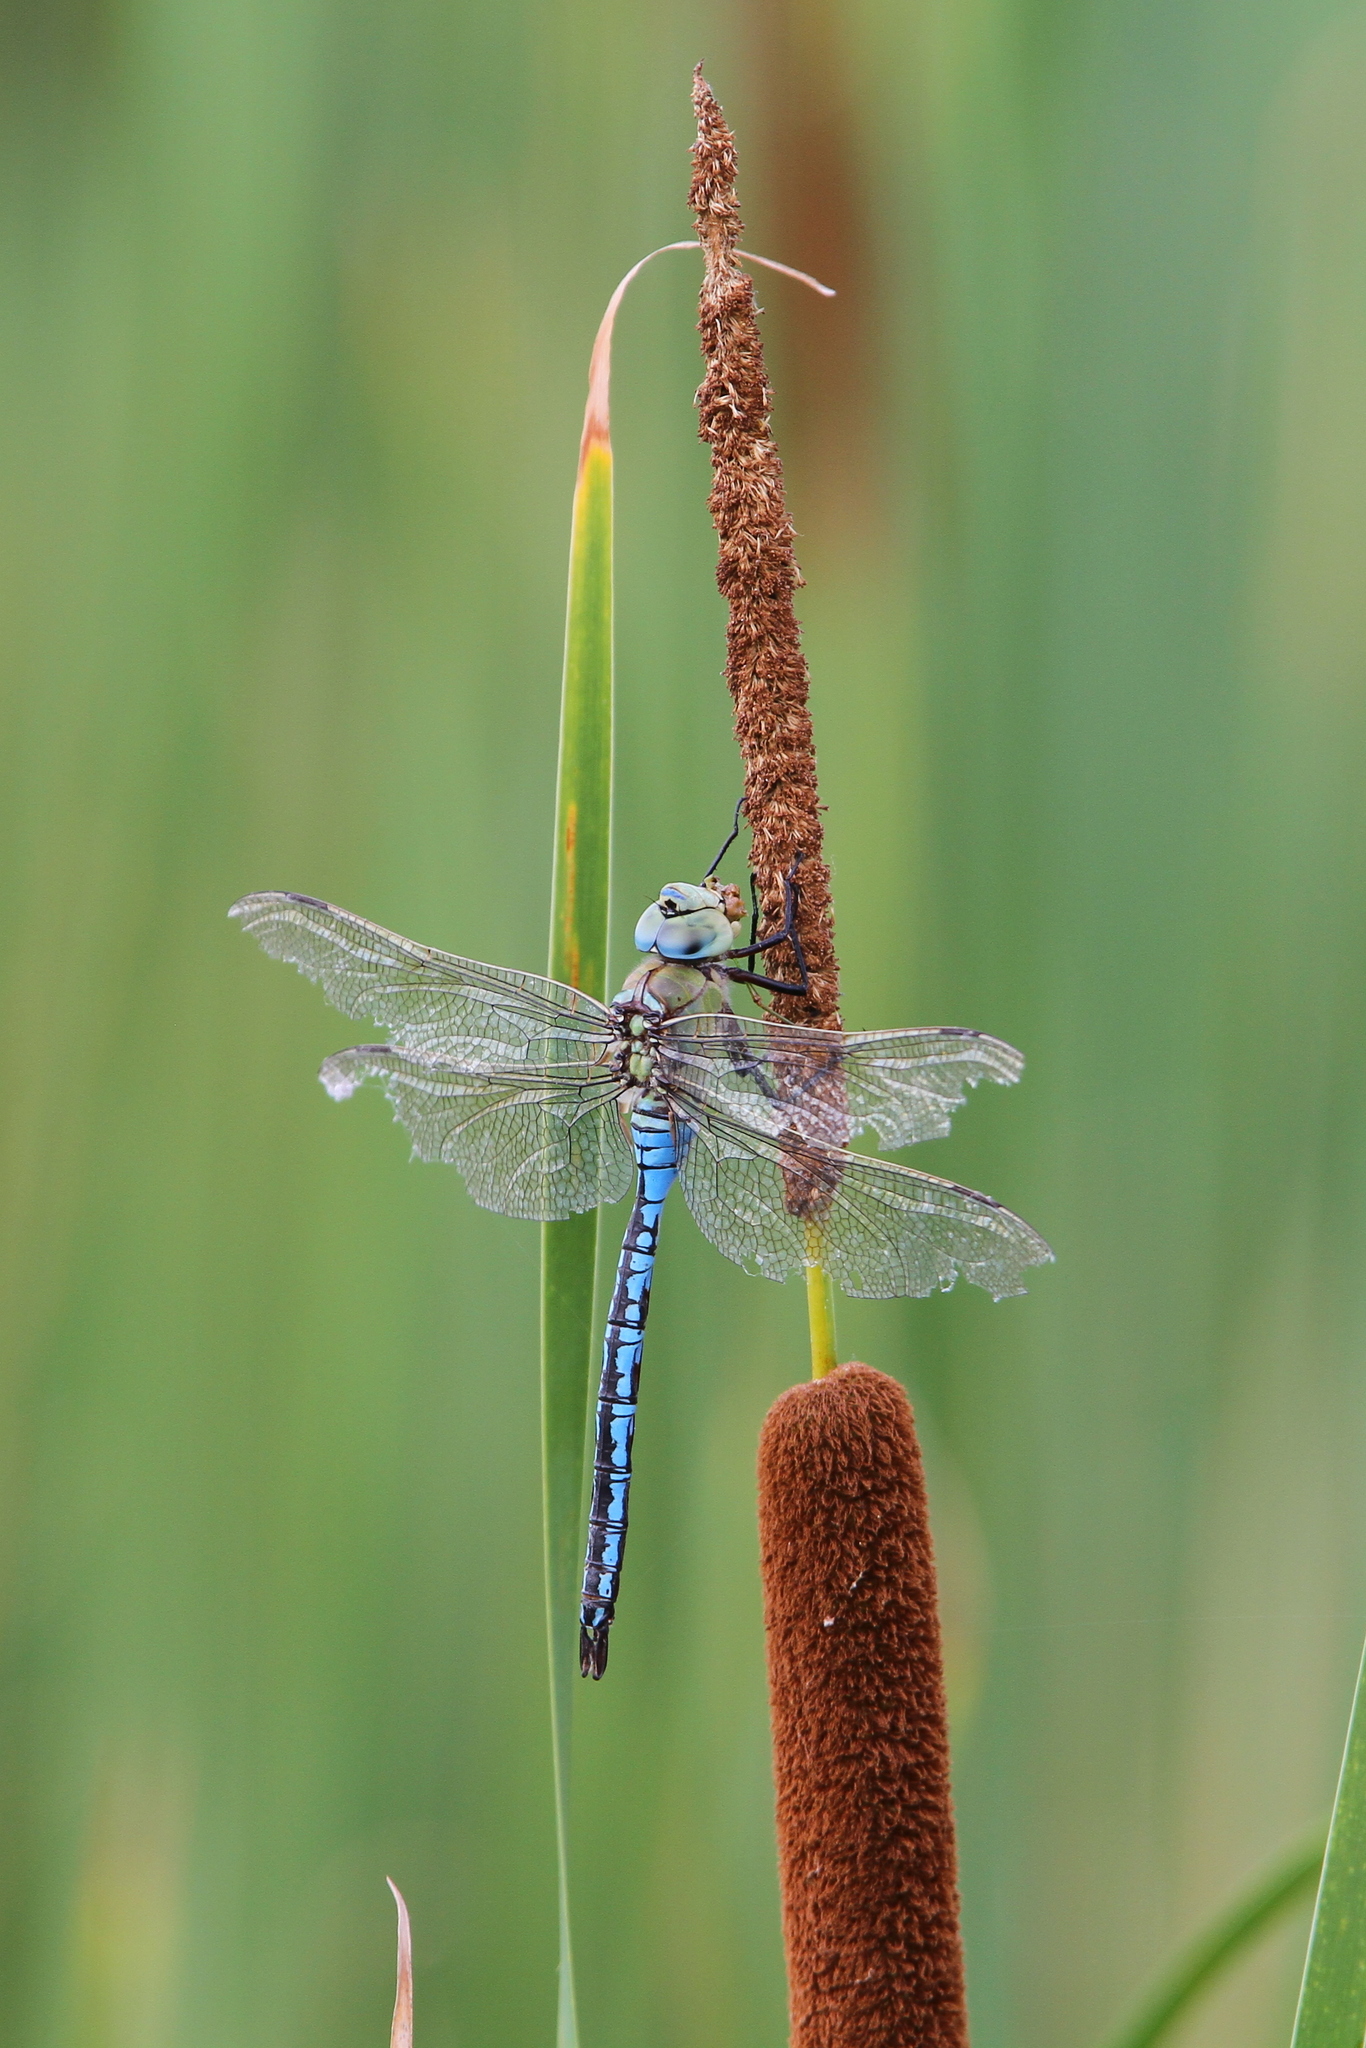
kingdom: Animalia
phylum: Arthropoda
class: Insecta
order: Odonata
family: Aeshnidae
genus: Anax
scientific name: Anax imperator
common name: Emperor dragonfly
